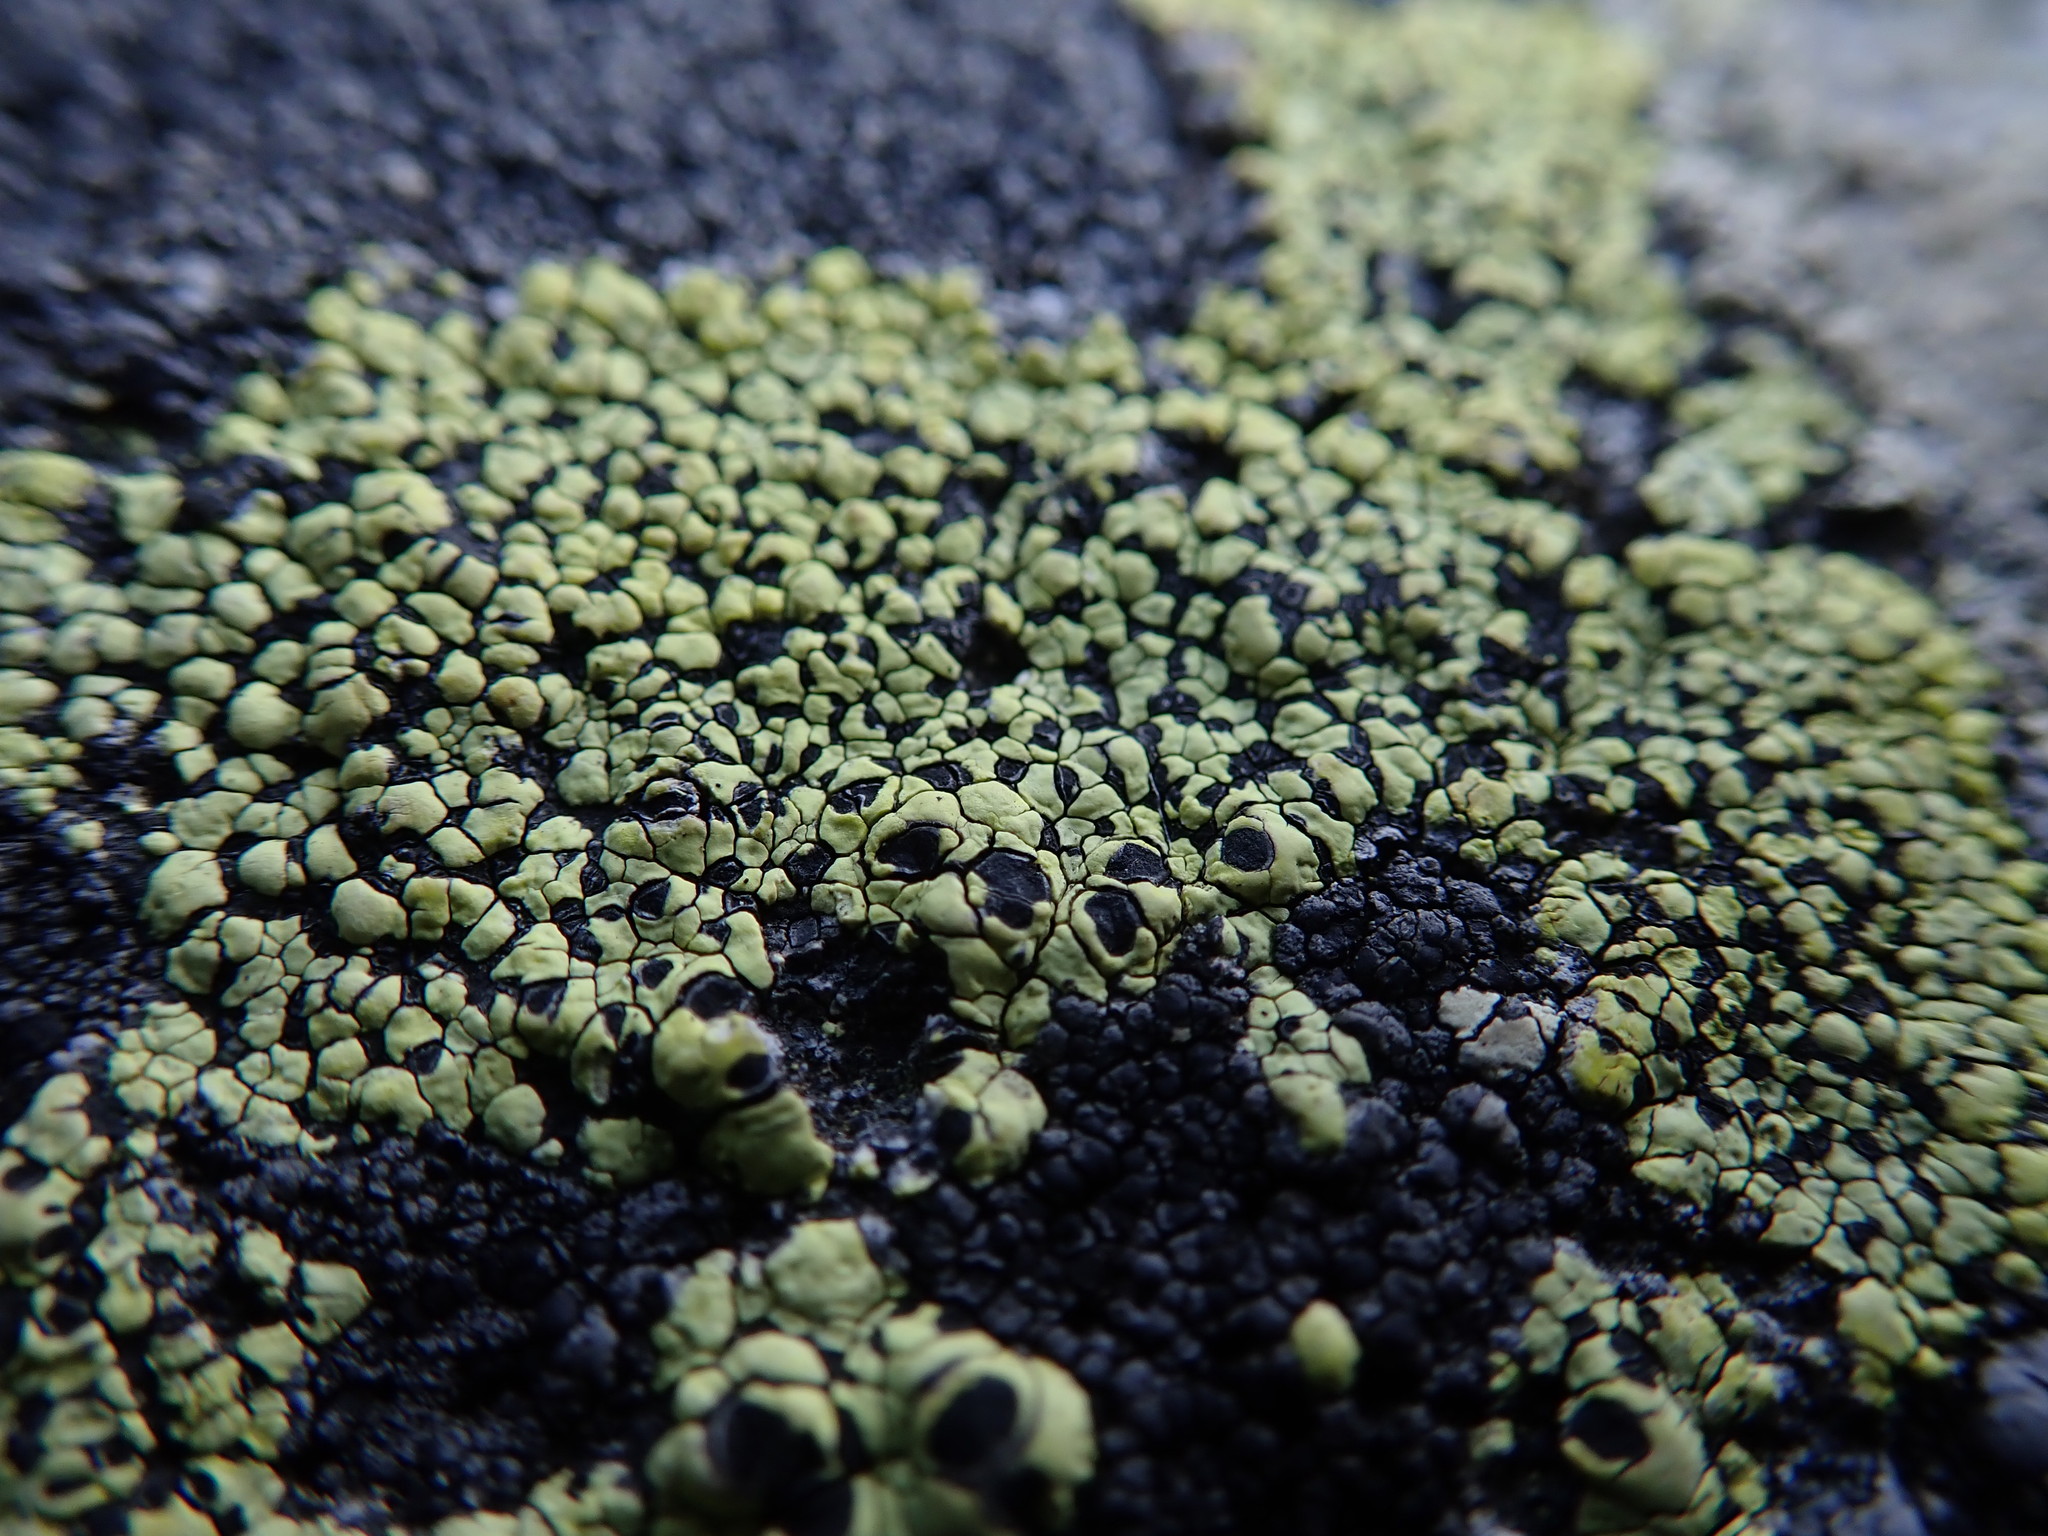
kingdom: Fungi
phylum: Ascomycota
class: Lecanoromycetes
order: Rhizocarpales
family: Rhizocarpaceae
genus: Rhizocarpon
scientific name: Rhizocarpon geographicum
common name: Yellow map lichen
